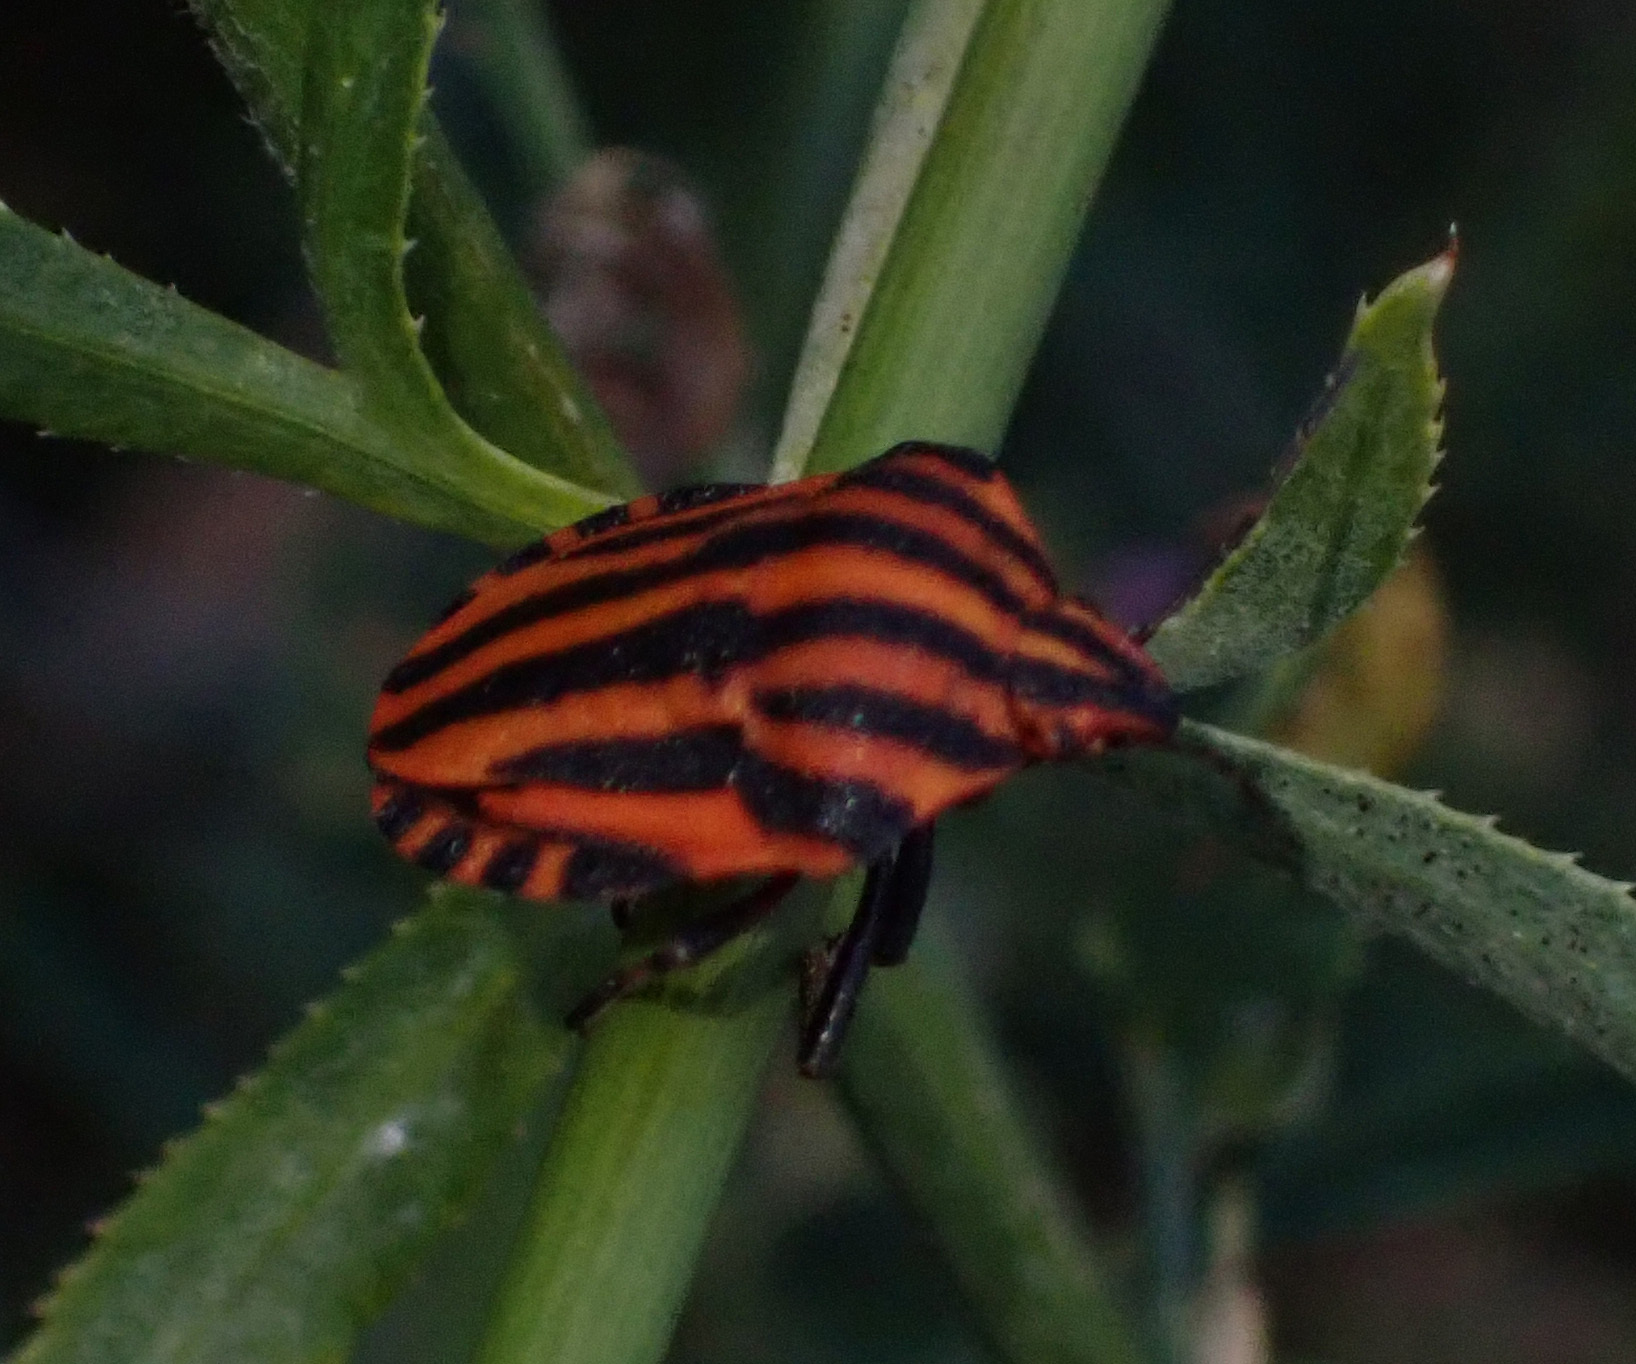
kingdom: Animalia
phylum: Arthropoda
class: Insecta
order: Hemiptera
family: Pentatomidae
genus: Graphosoma
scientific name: Graphosoma italicum
